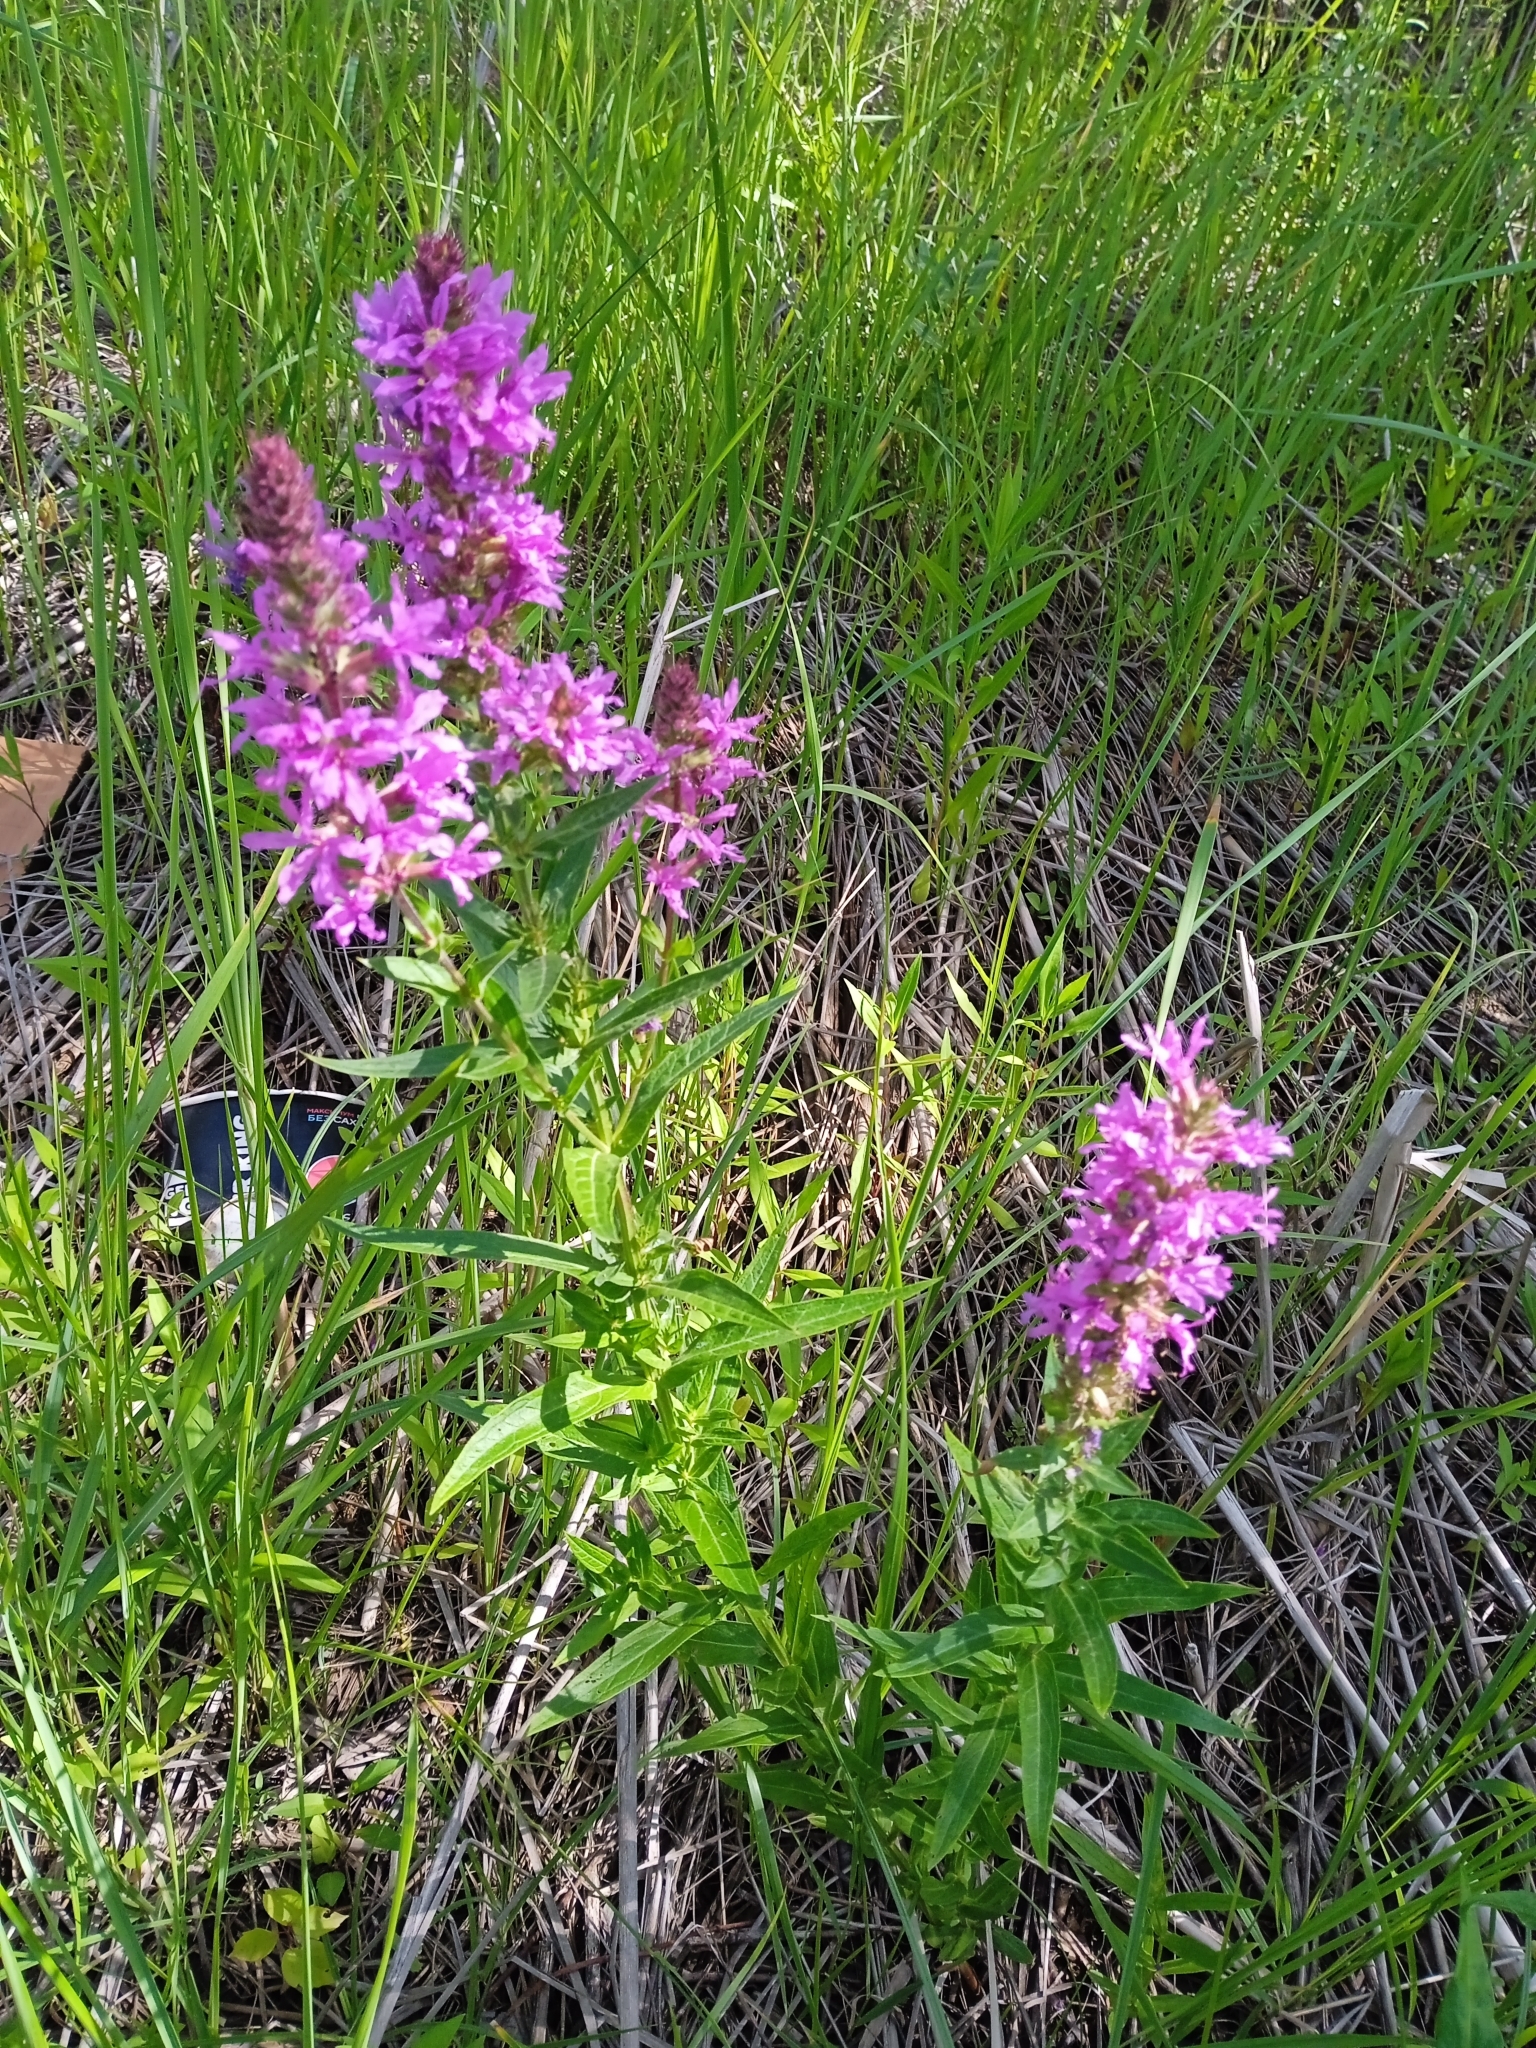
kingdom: Plantae
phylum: Tracheophyta
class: Magnoliopsida
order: Myrtales
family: Lythraceae
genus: Lythrum
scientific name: Lythrum salicaria
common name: Purple loosestrife
